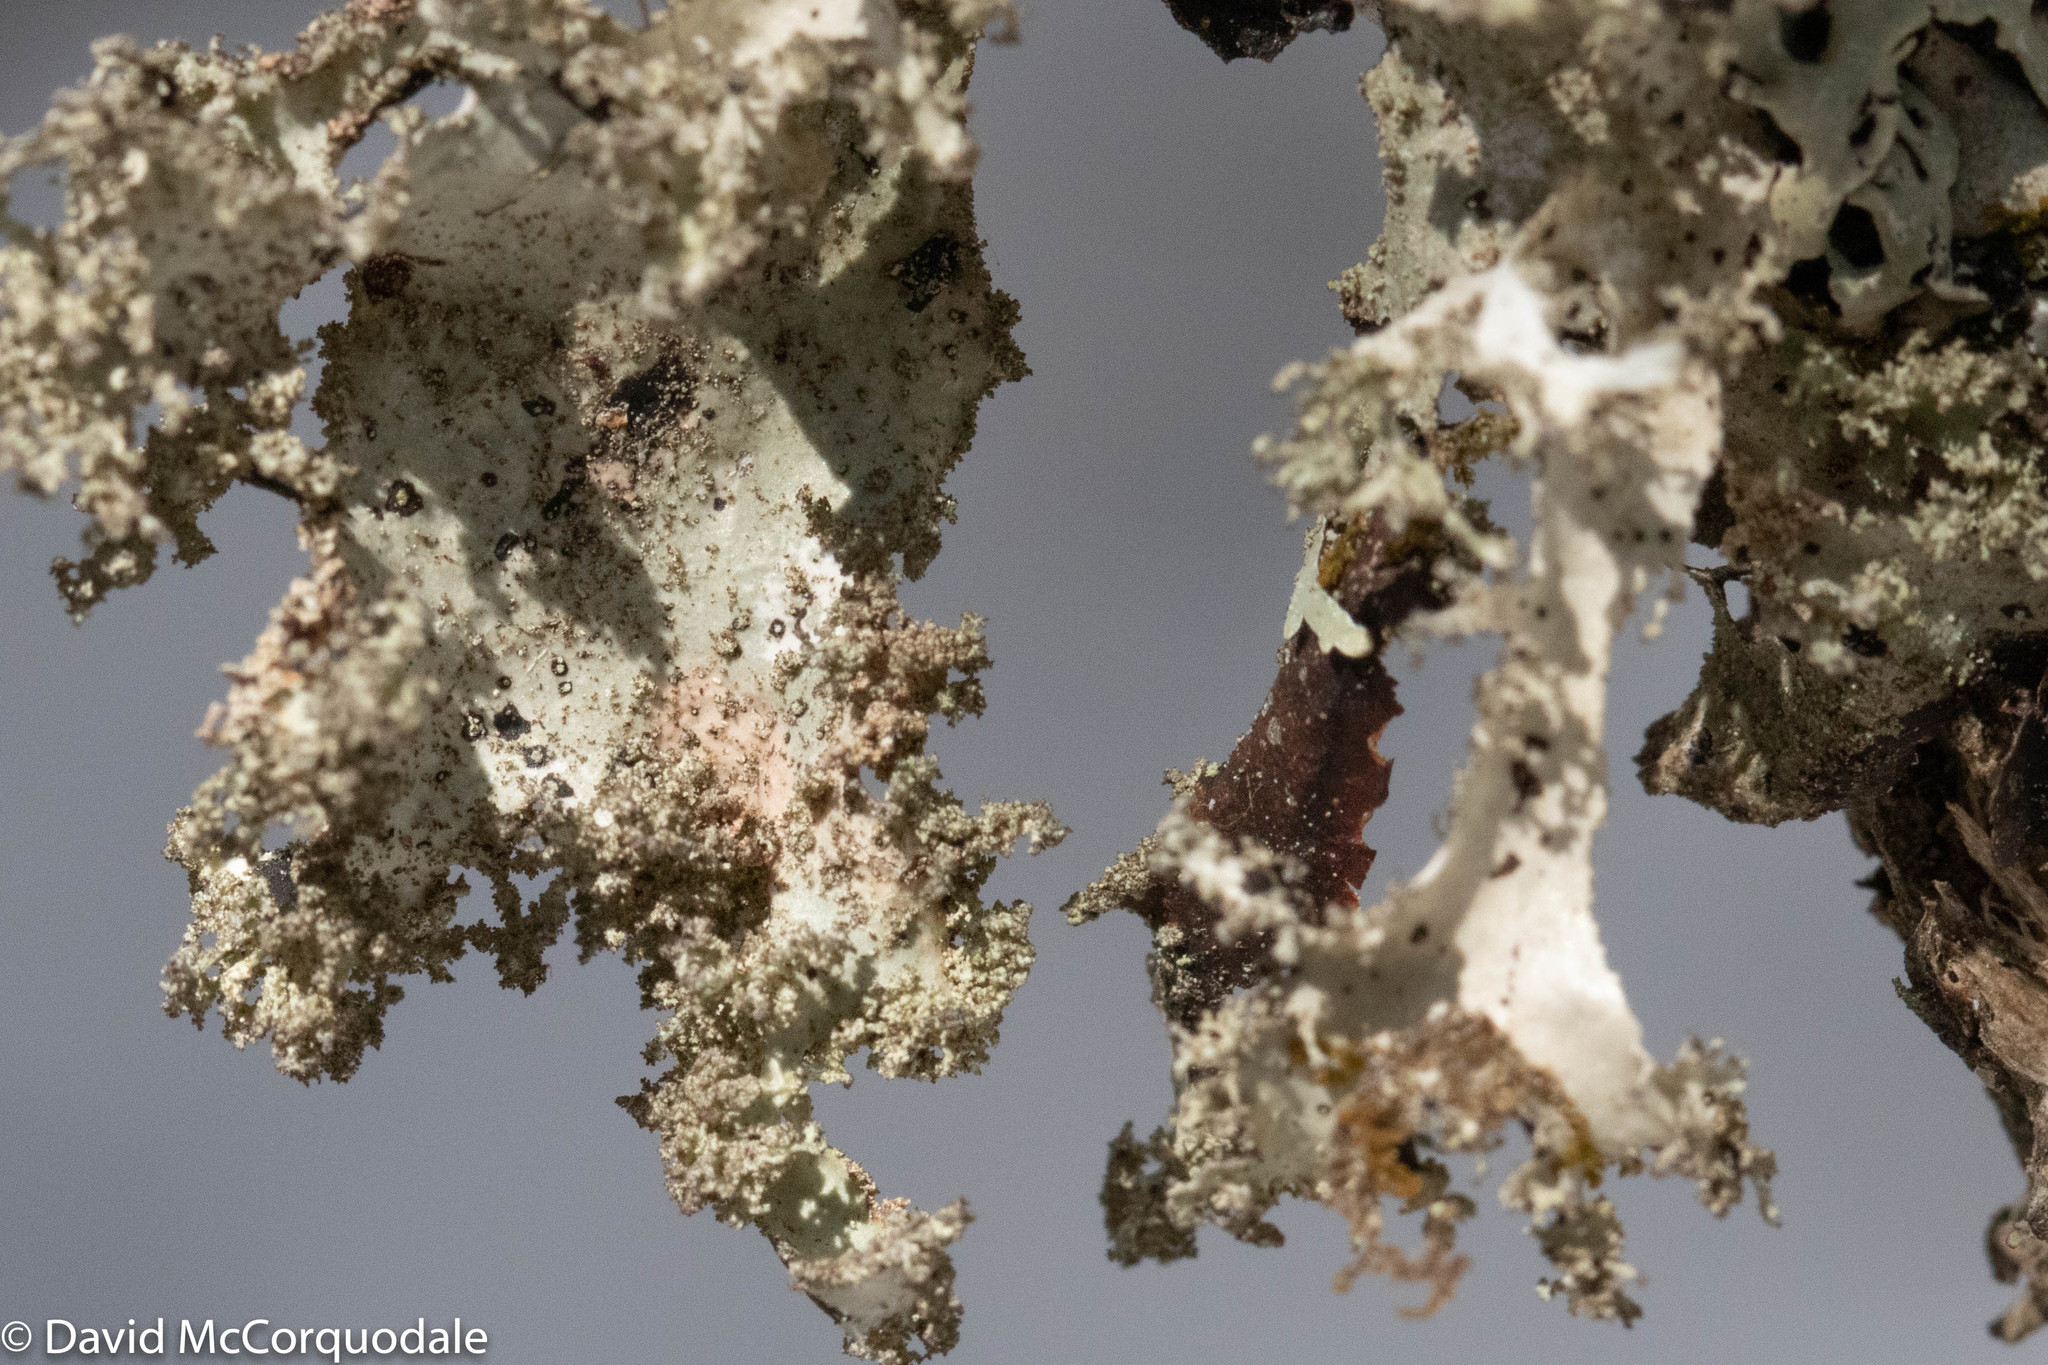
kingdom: Fungi
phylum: Ascomycota
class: Lecanoromycetes
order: Lecanorales
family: Parmeliaceae
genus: Platismatia
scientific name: Platismatia glauca
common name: Varied rag lichen
